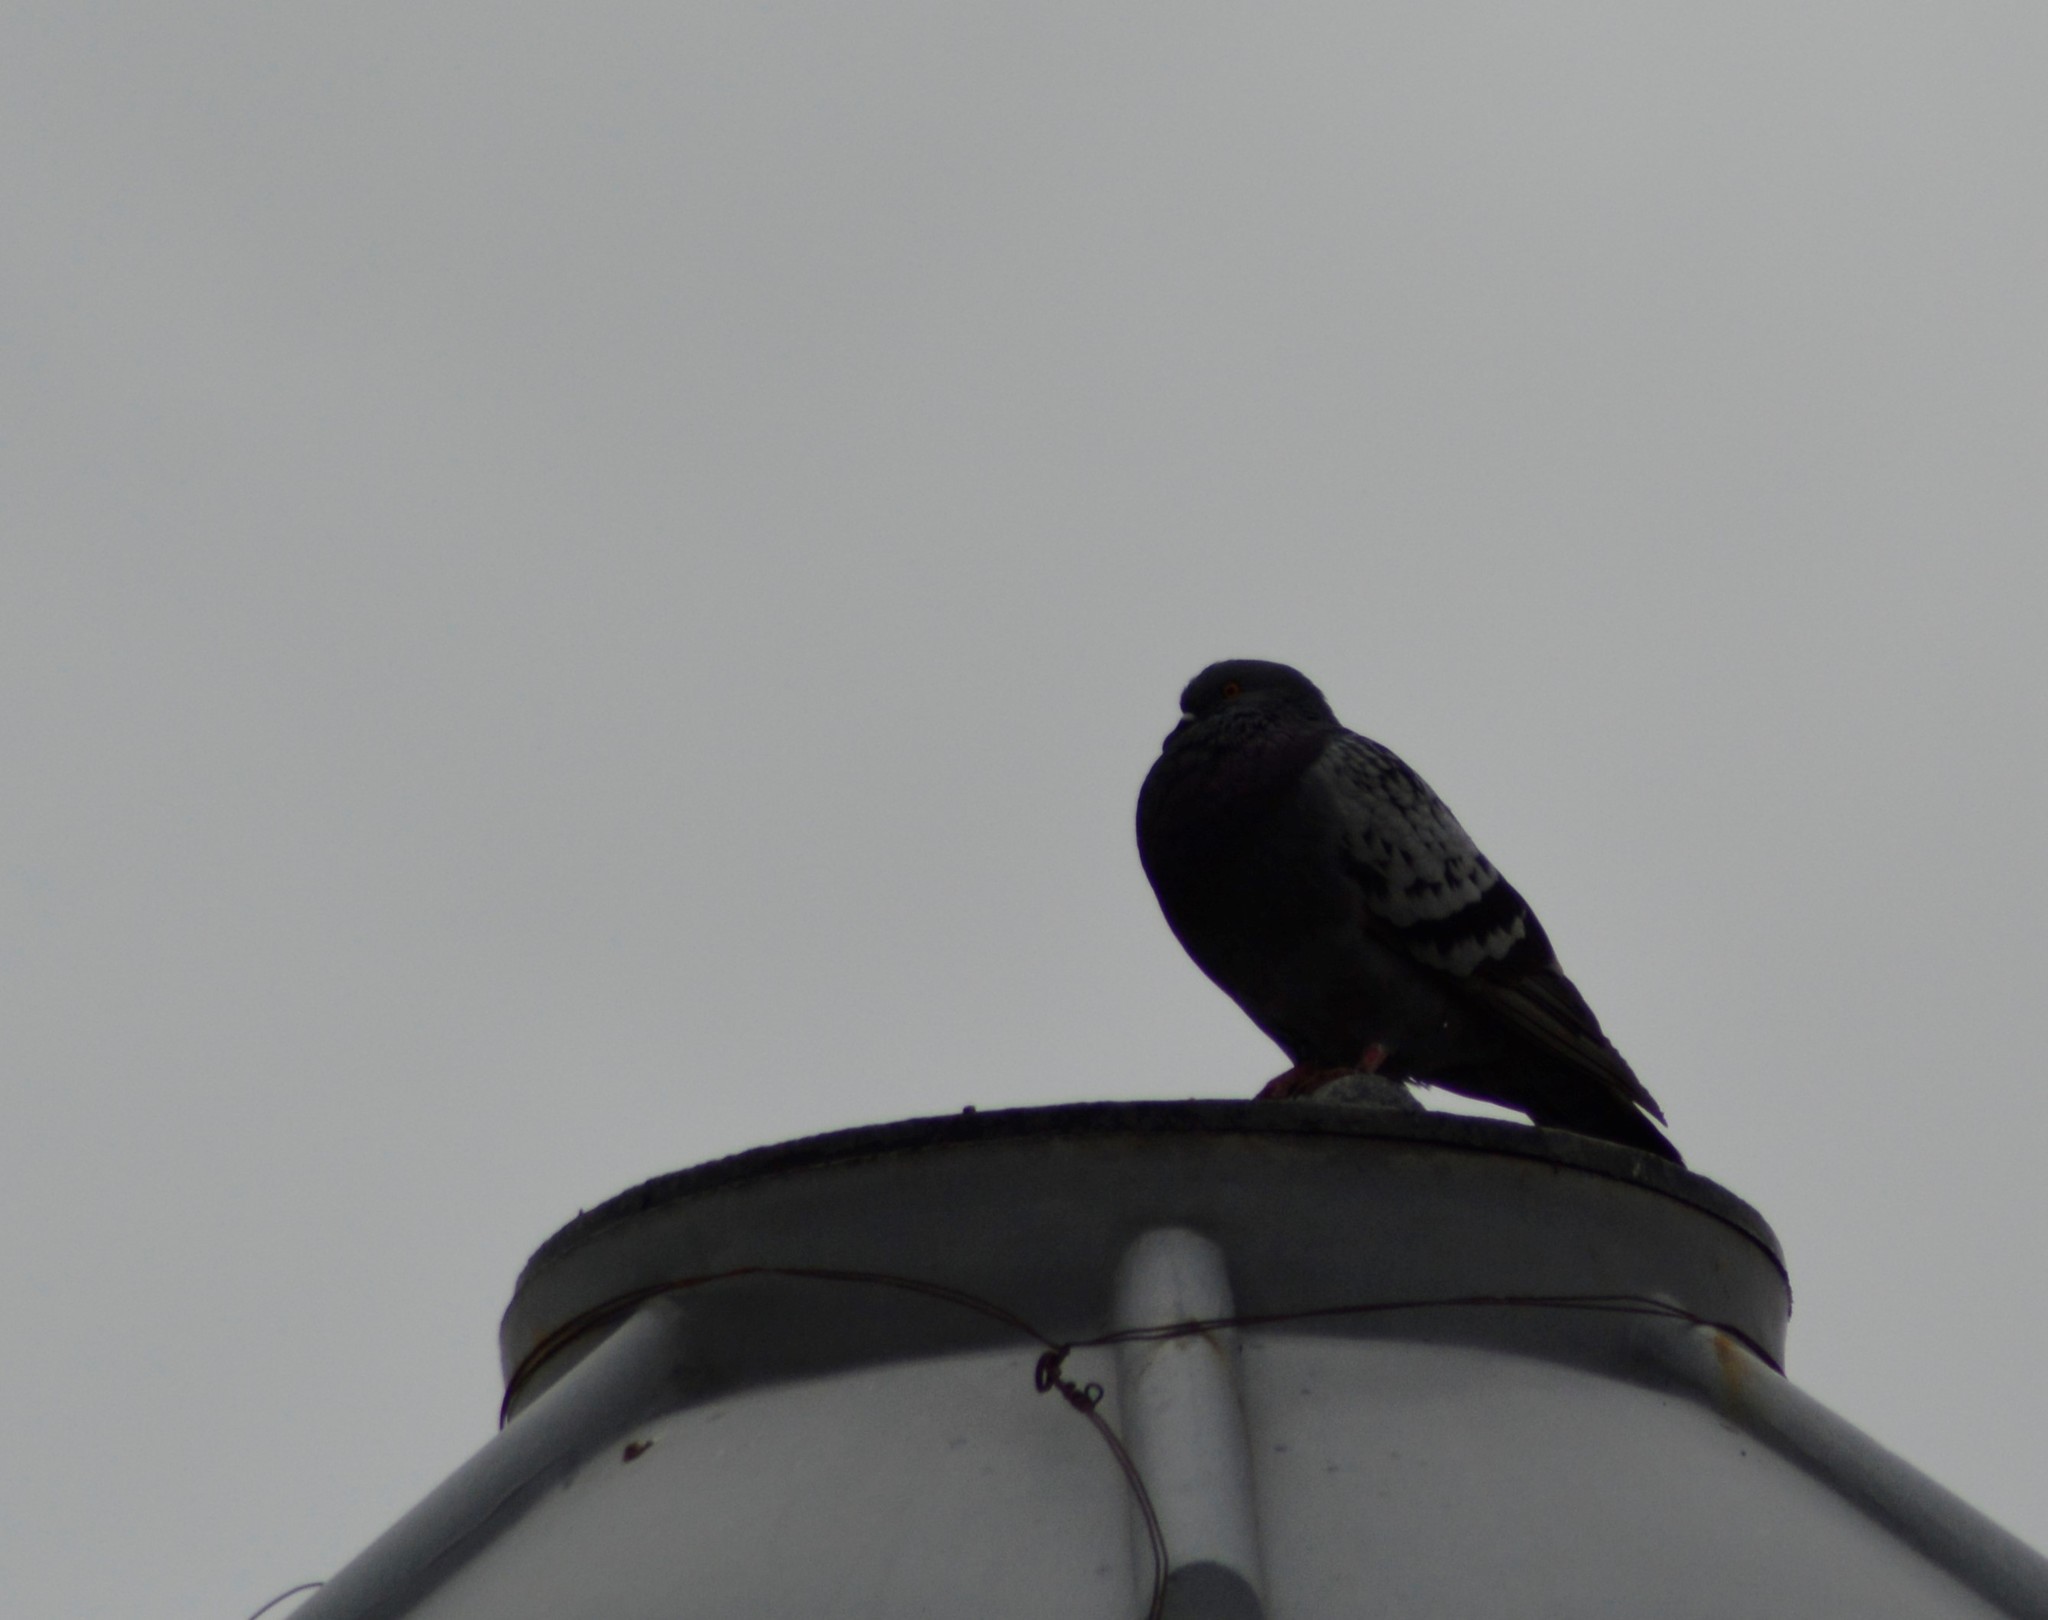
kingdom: Animalia
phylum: Chordata
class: Aves
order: Columbiformes
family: Columbidae
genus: Columba
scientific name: Columba livia
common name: Rock pigeon
